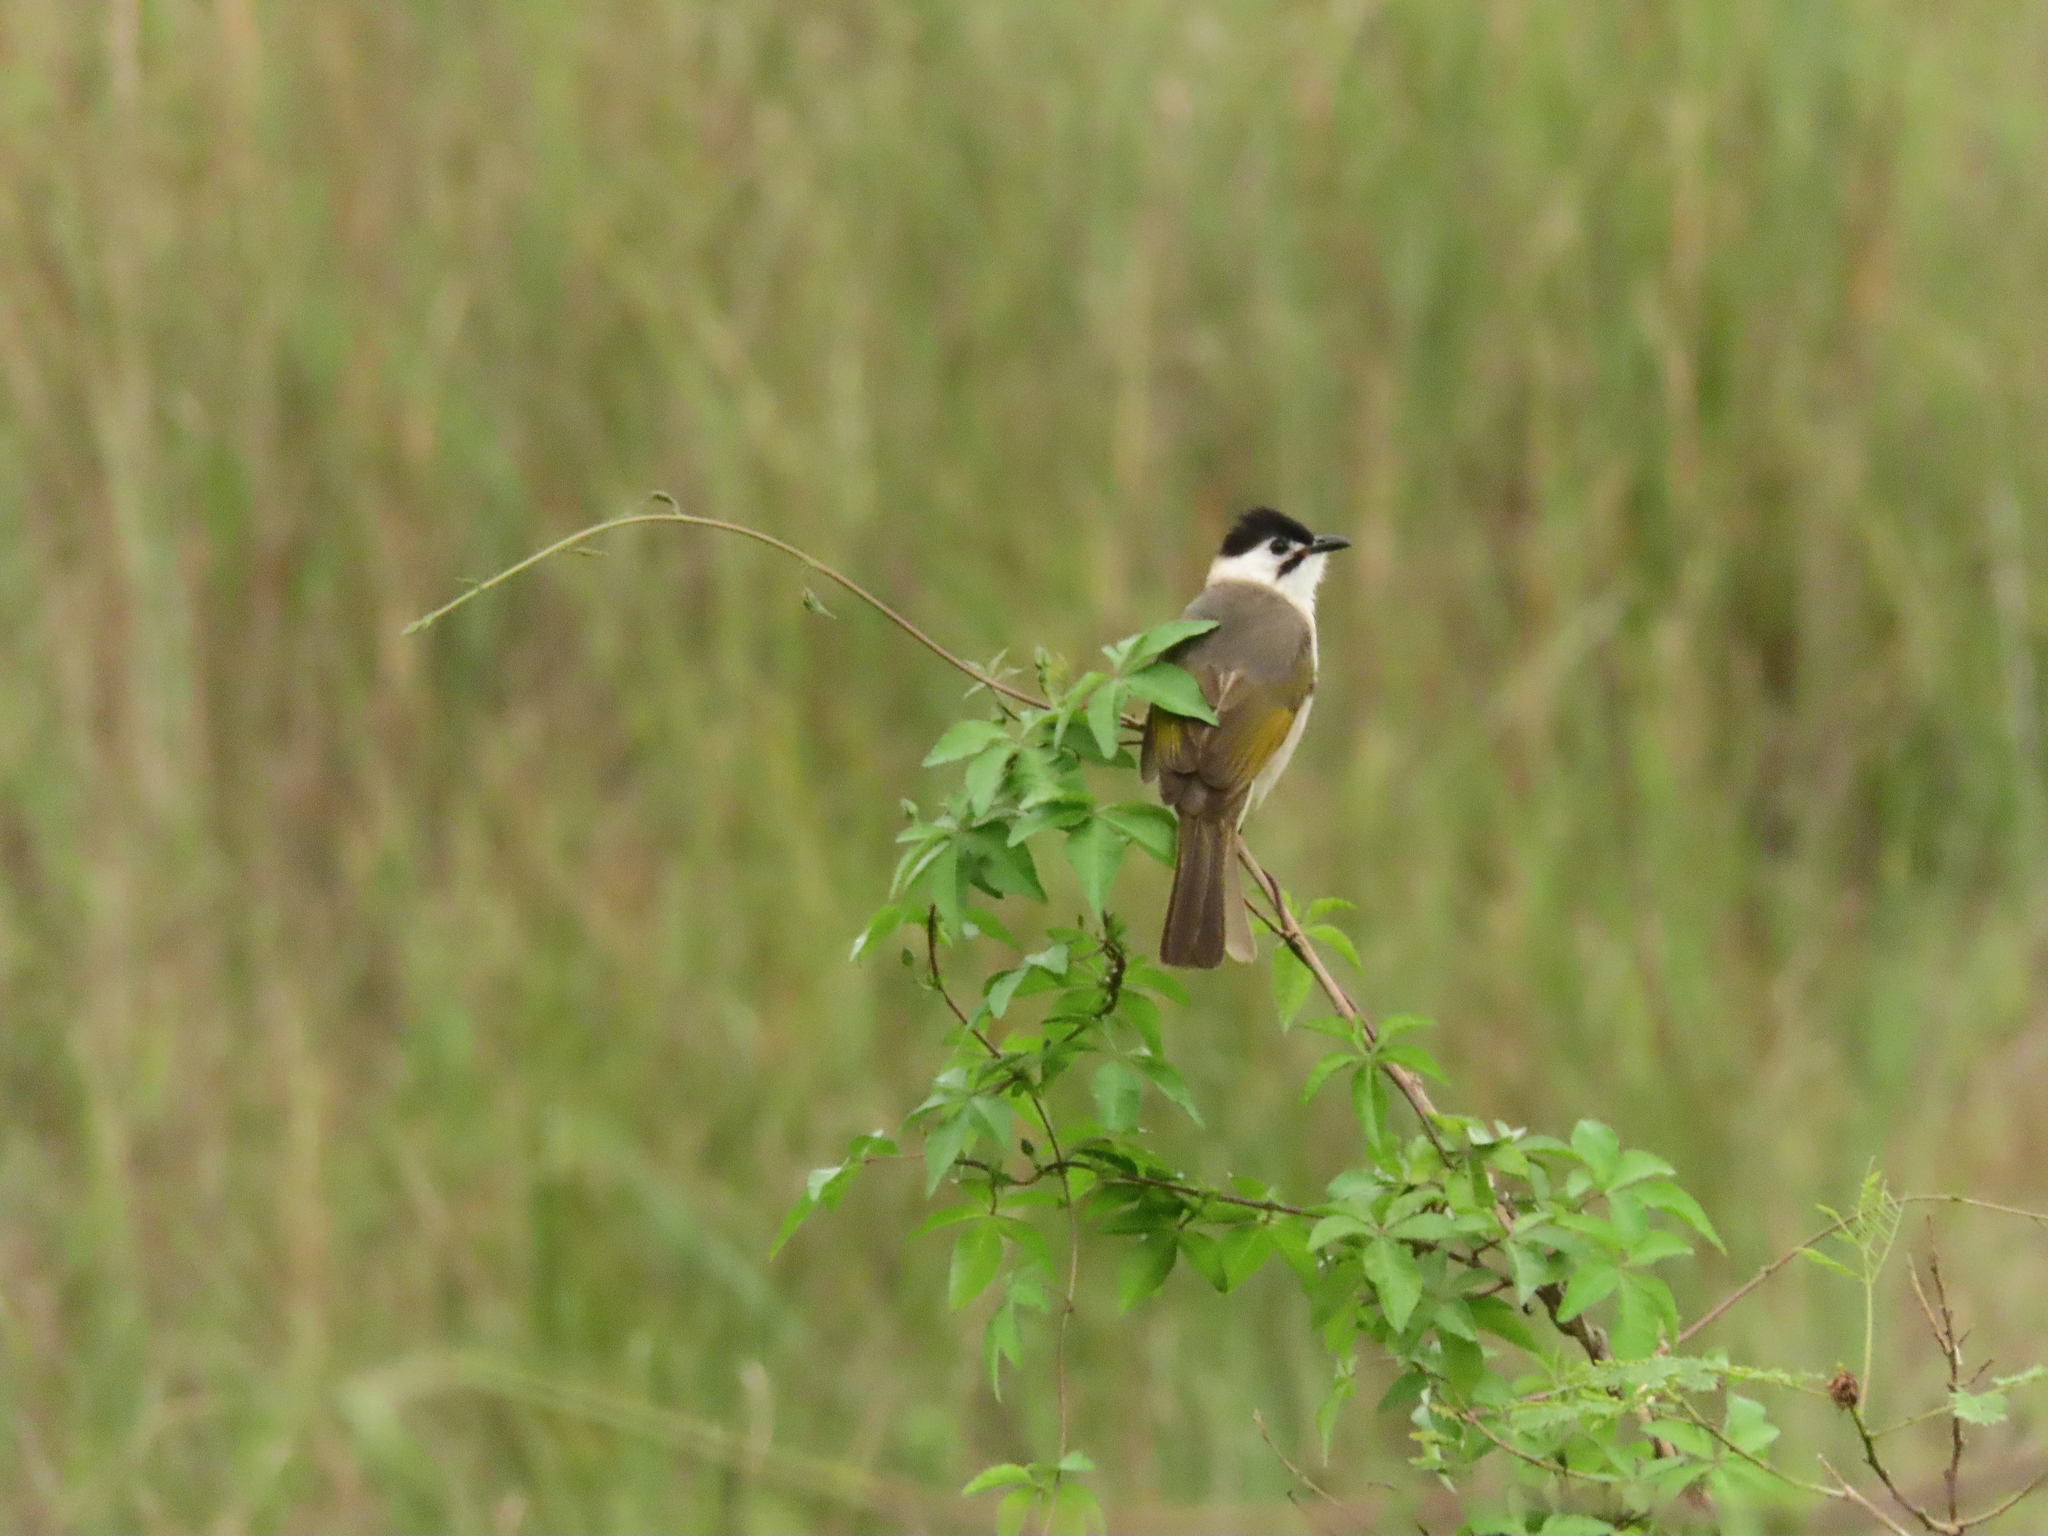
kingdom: Animalia
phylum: Chordata
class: Aves
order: Passeriformes
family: Pycnonotidae
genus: Pycnonotus
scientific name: Pycnonotus taivanus
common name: Styan's bulbul
